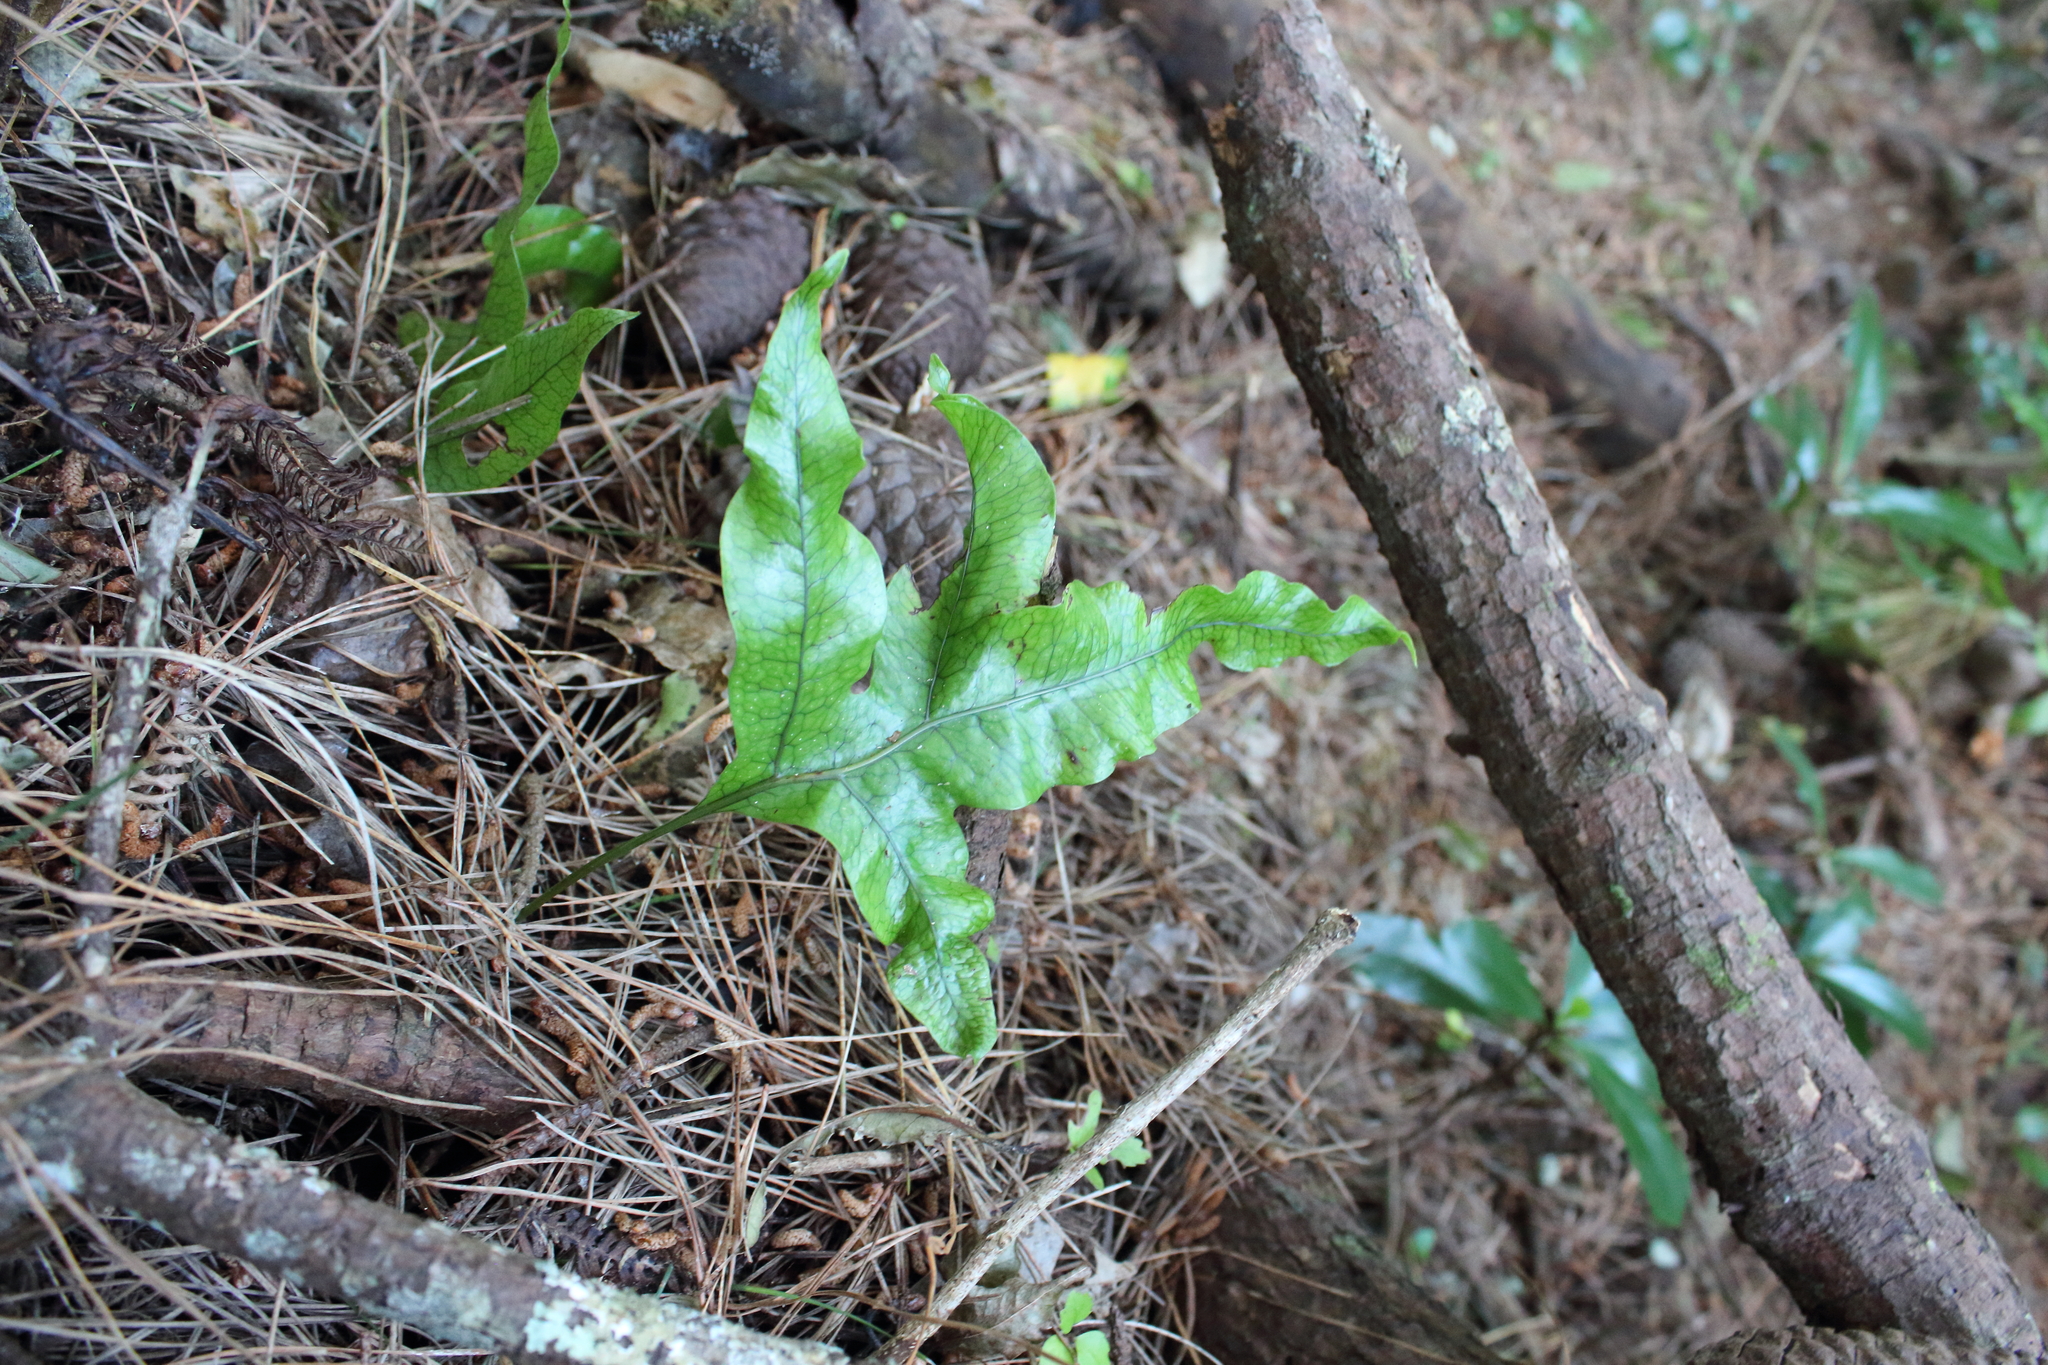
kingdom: Plantae
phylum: Tracheophyta
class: Polypodiopsida
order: Polypodiales
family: Polypodiaceae
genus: Lecanopteris
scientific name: Lecanopteris pustulata
